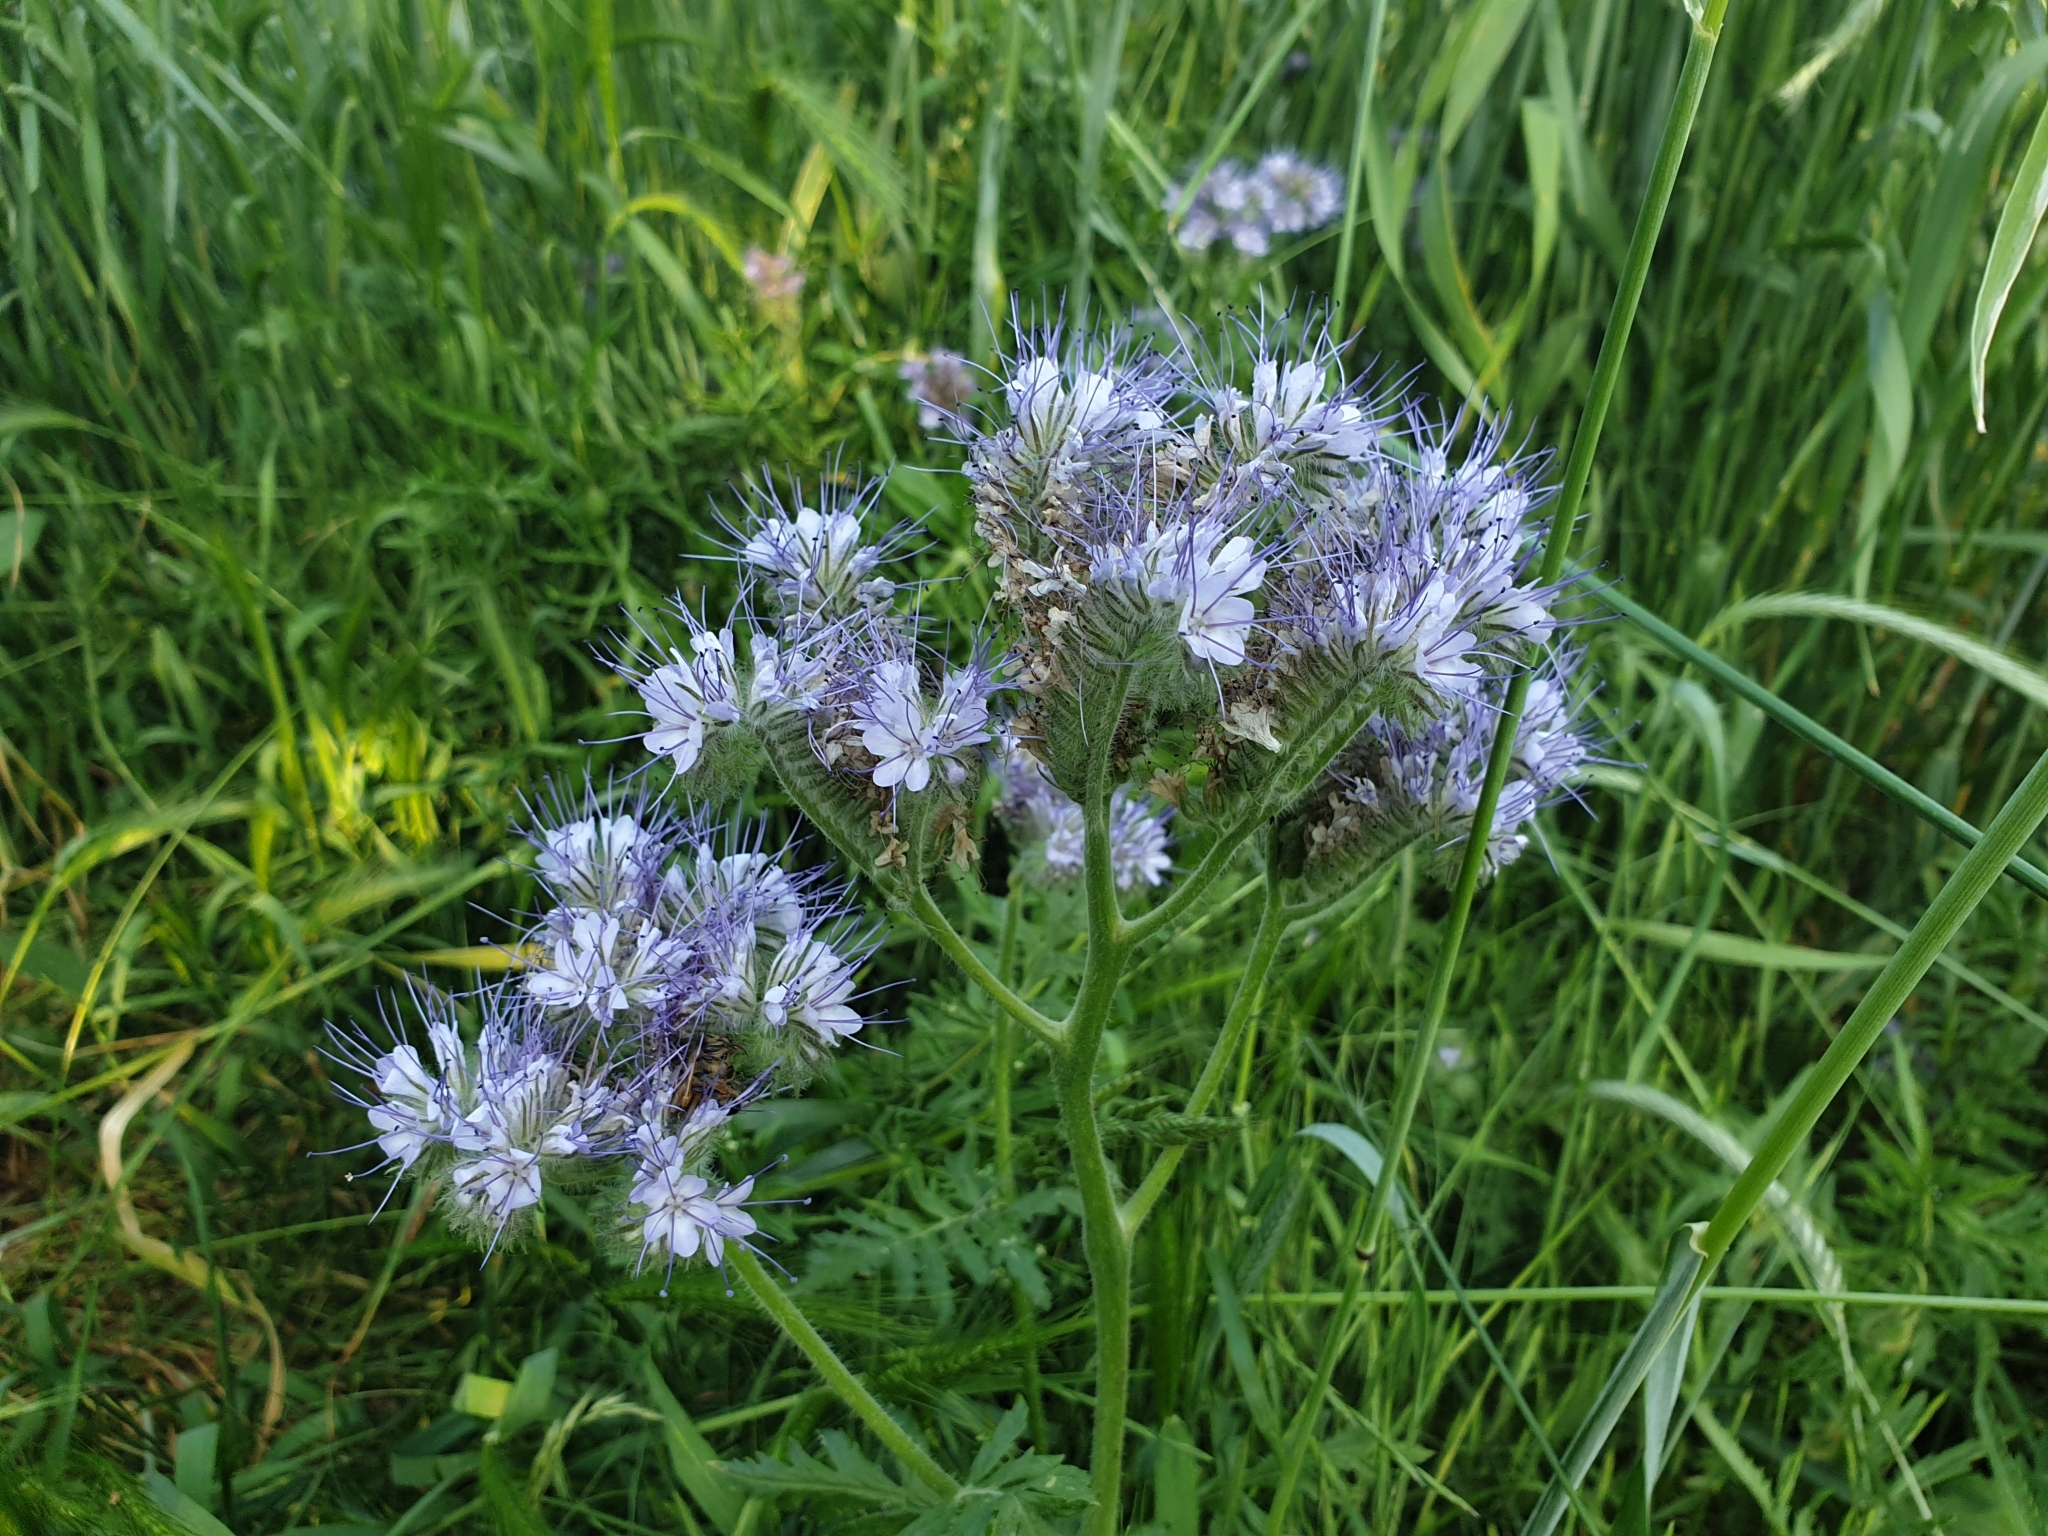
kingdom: Plantae
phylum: Tracheophyta
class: Magnoliopsida
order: Boraginales
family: Hydrophyllaceae
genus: Phacelia
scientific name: Phacelia tanacetifolia
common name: Phacelia
